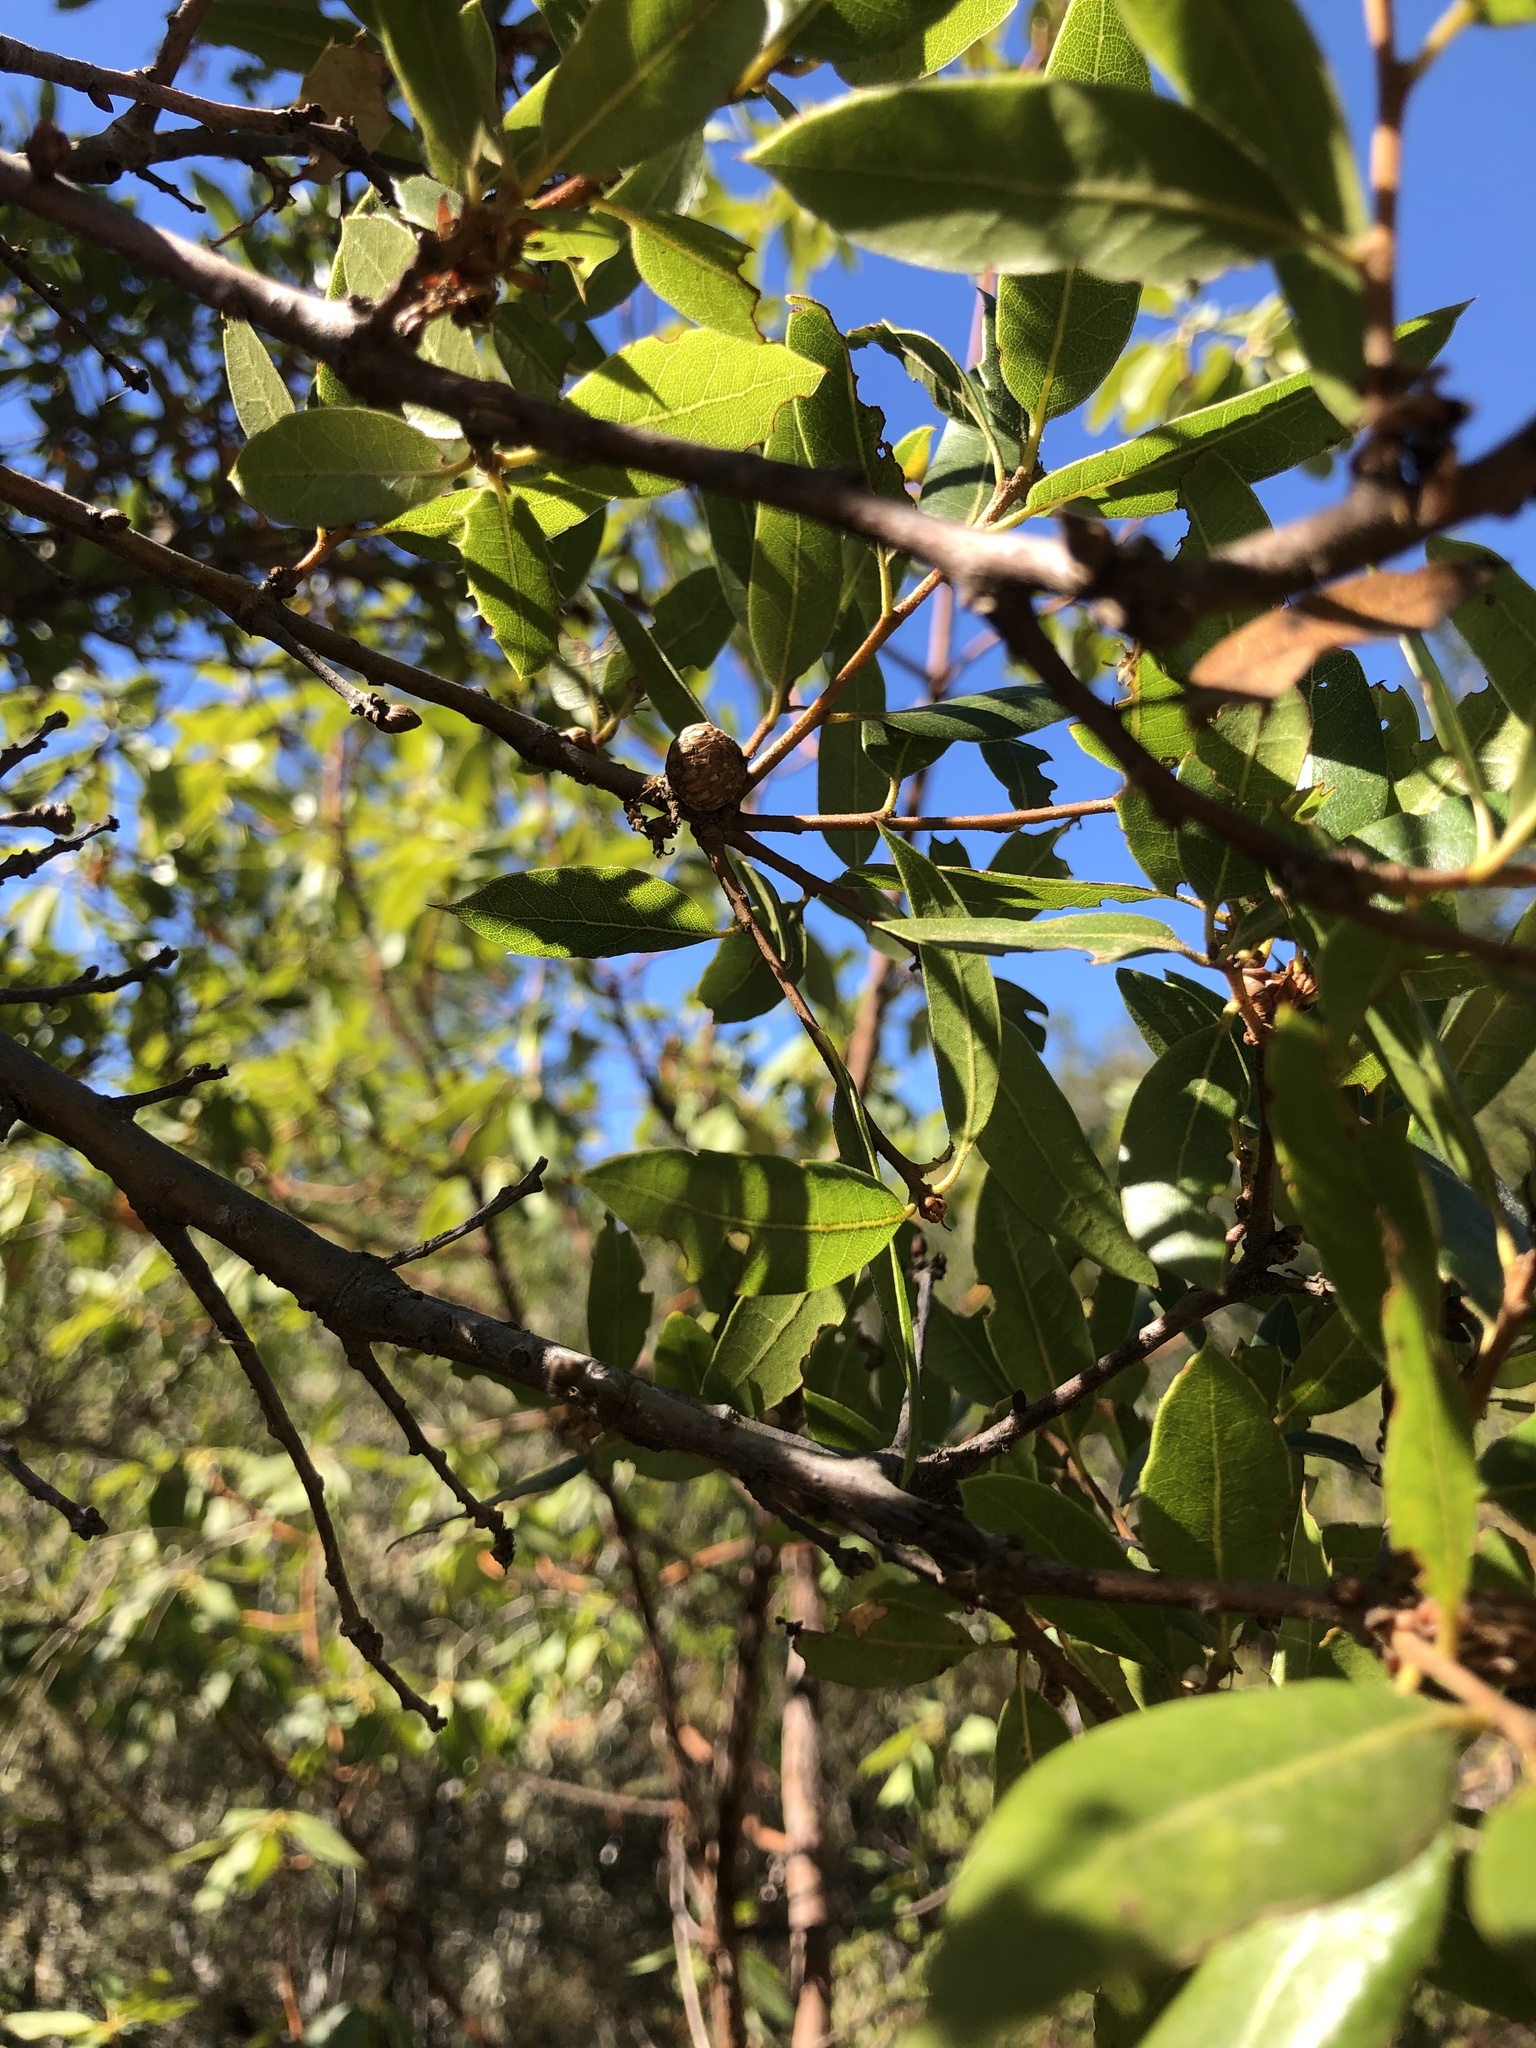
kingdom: Plantae
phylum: Tracheophyta
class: Magnoliopsida
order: Fagales
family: Fagaceae
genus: Quercus
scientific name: Quercus parvula
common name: Santa cruz island oak
